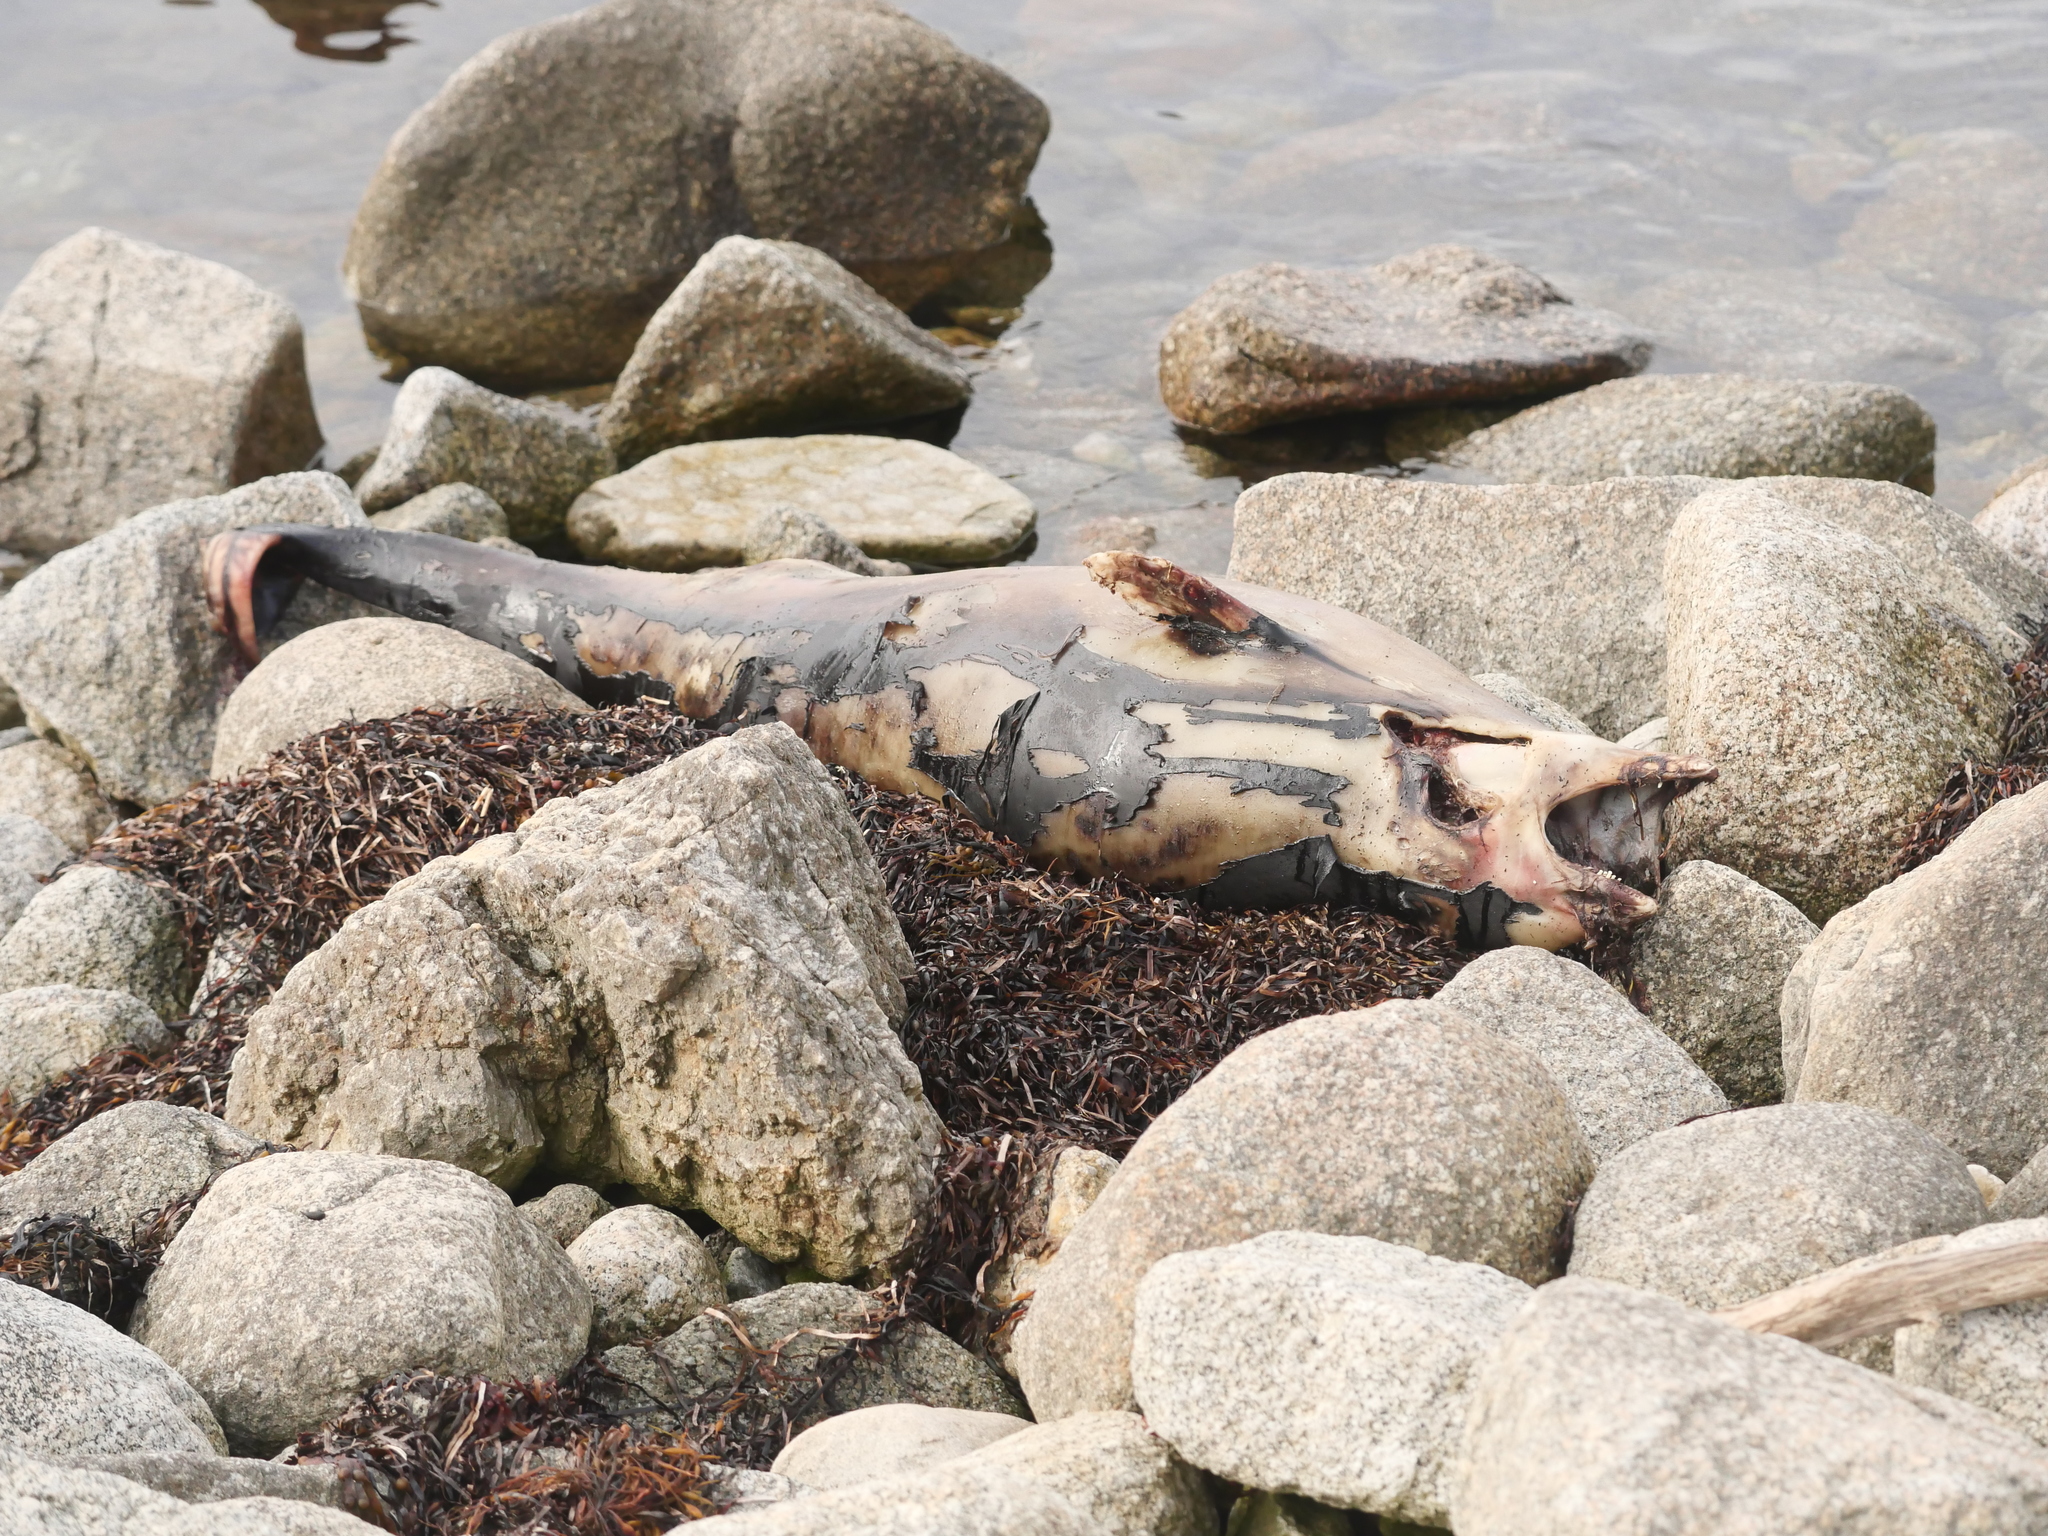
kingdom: Animalia
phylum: Chordata
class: Mammalia
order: Cetacea
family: Phocoenidae
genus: Phocoena
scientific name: Phocoena phocoena
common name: Harbor porpoise
